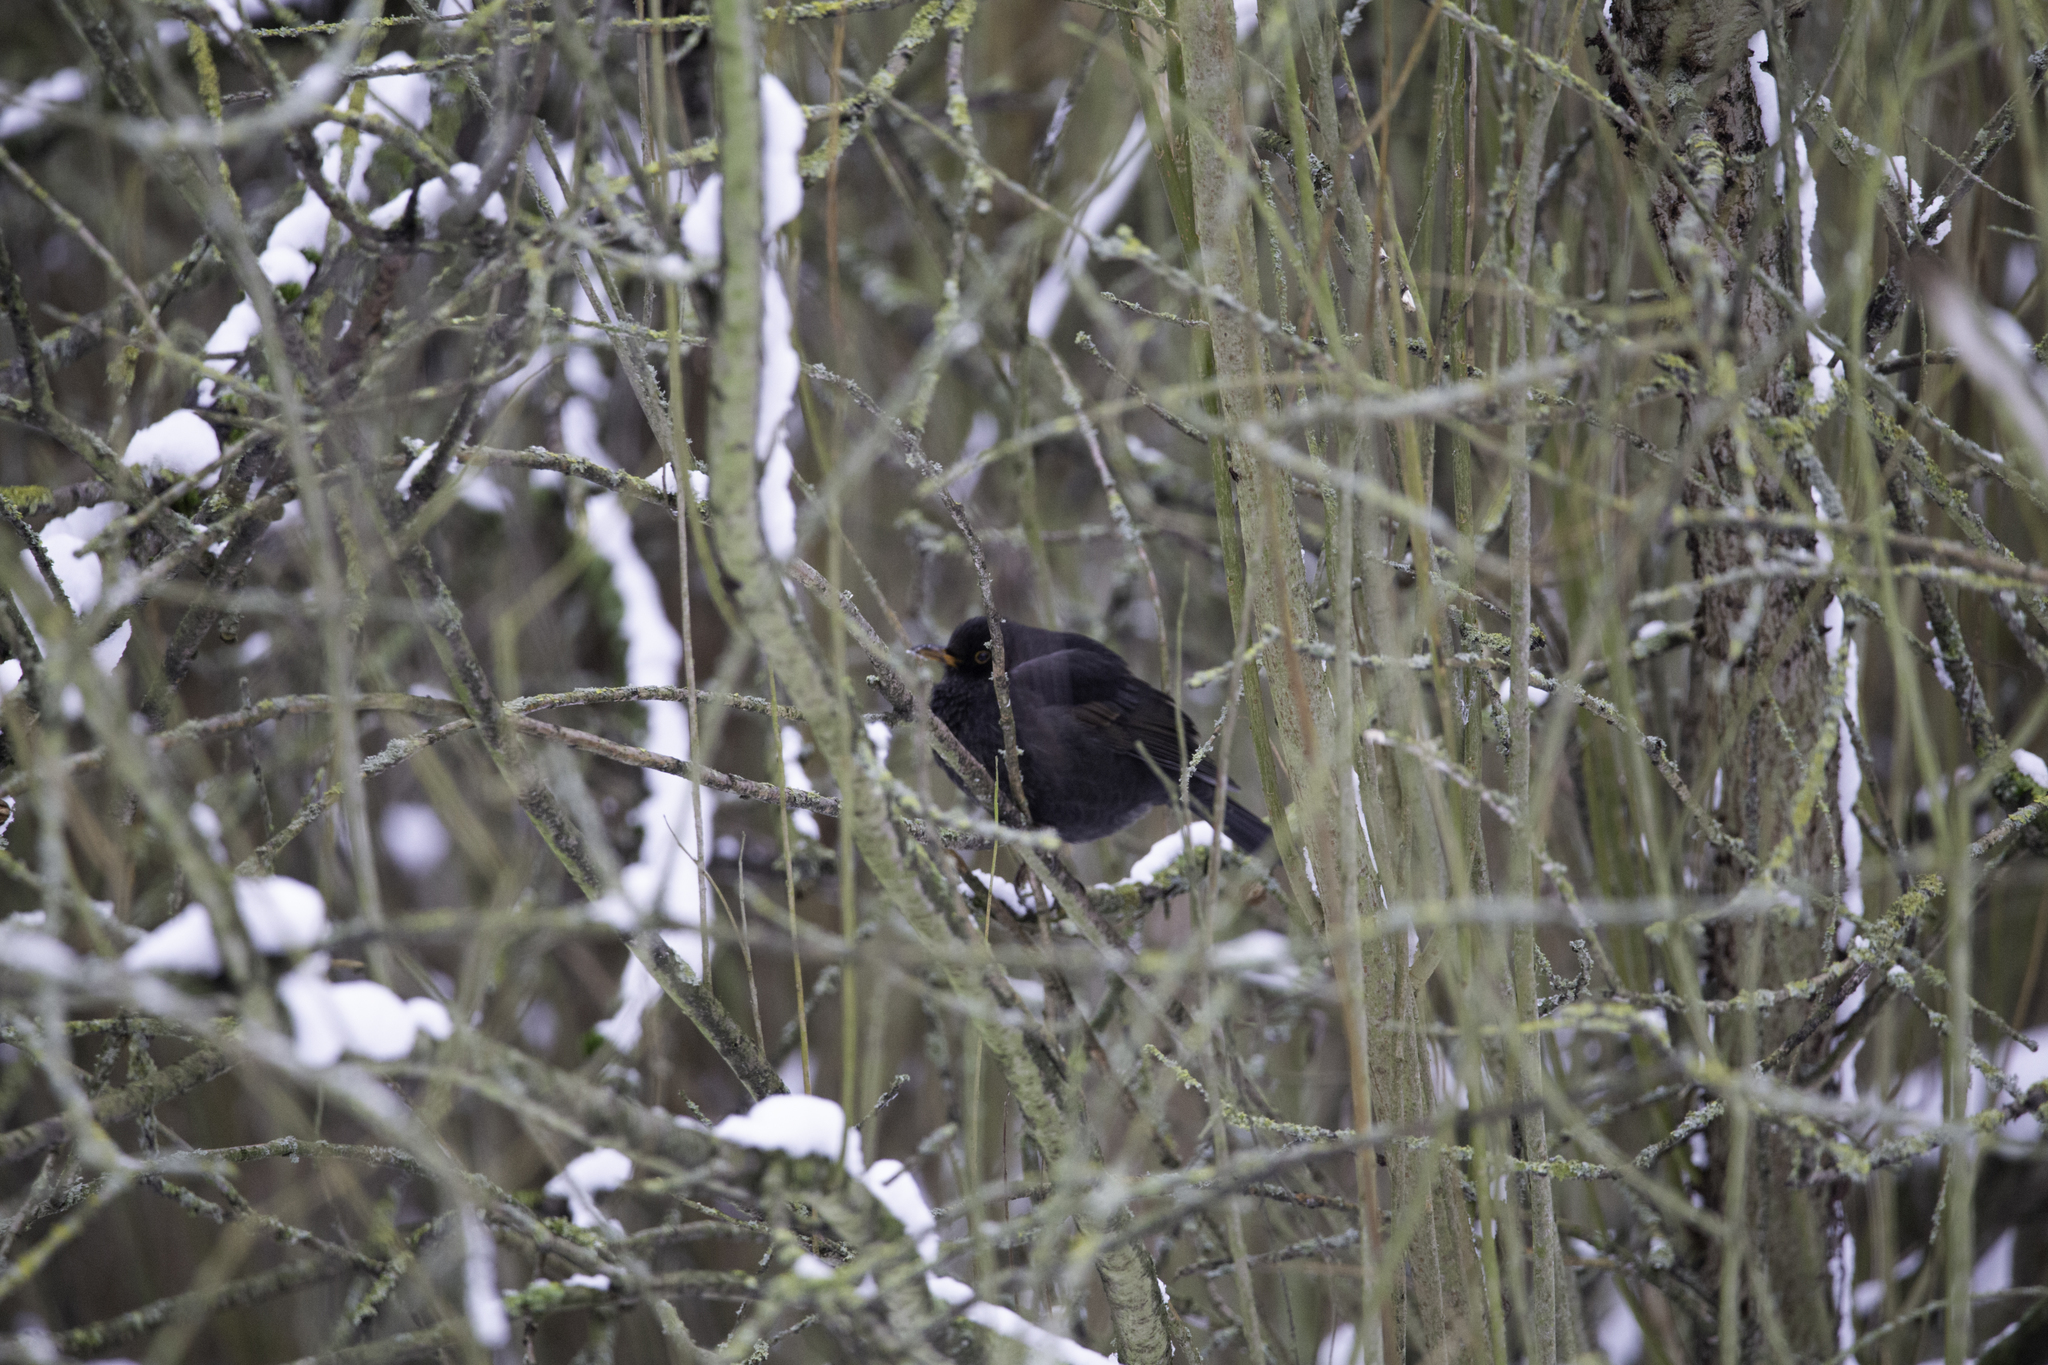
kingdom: Animalia
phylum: Chordata
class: Aves
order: Passeriformes
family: Turdidae
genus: Turdus
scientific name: Turdus merula
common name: Common blackbird
